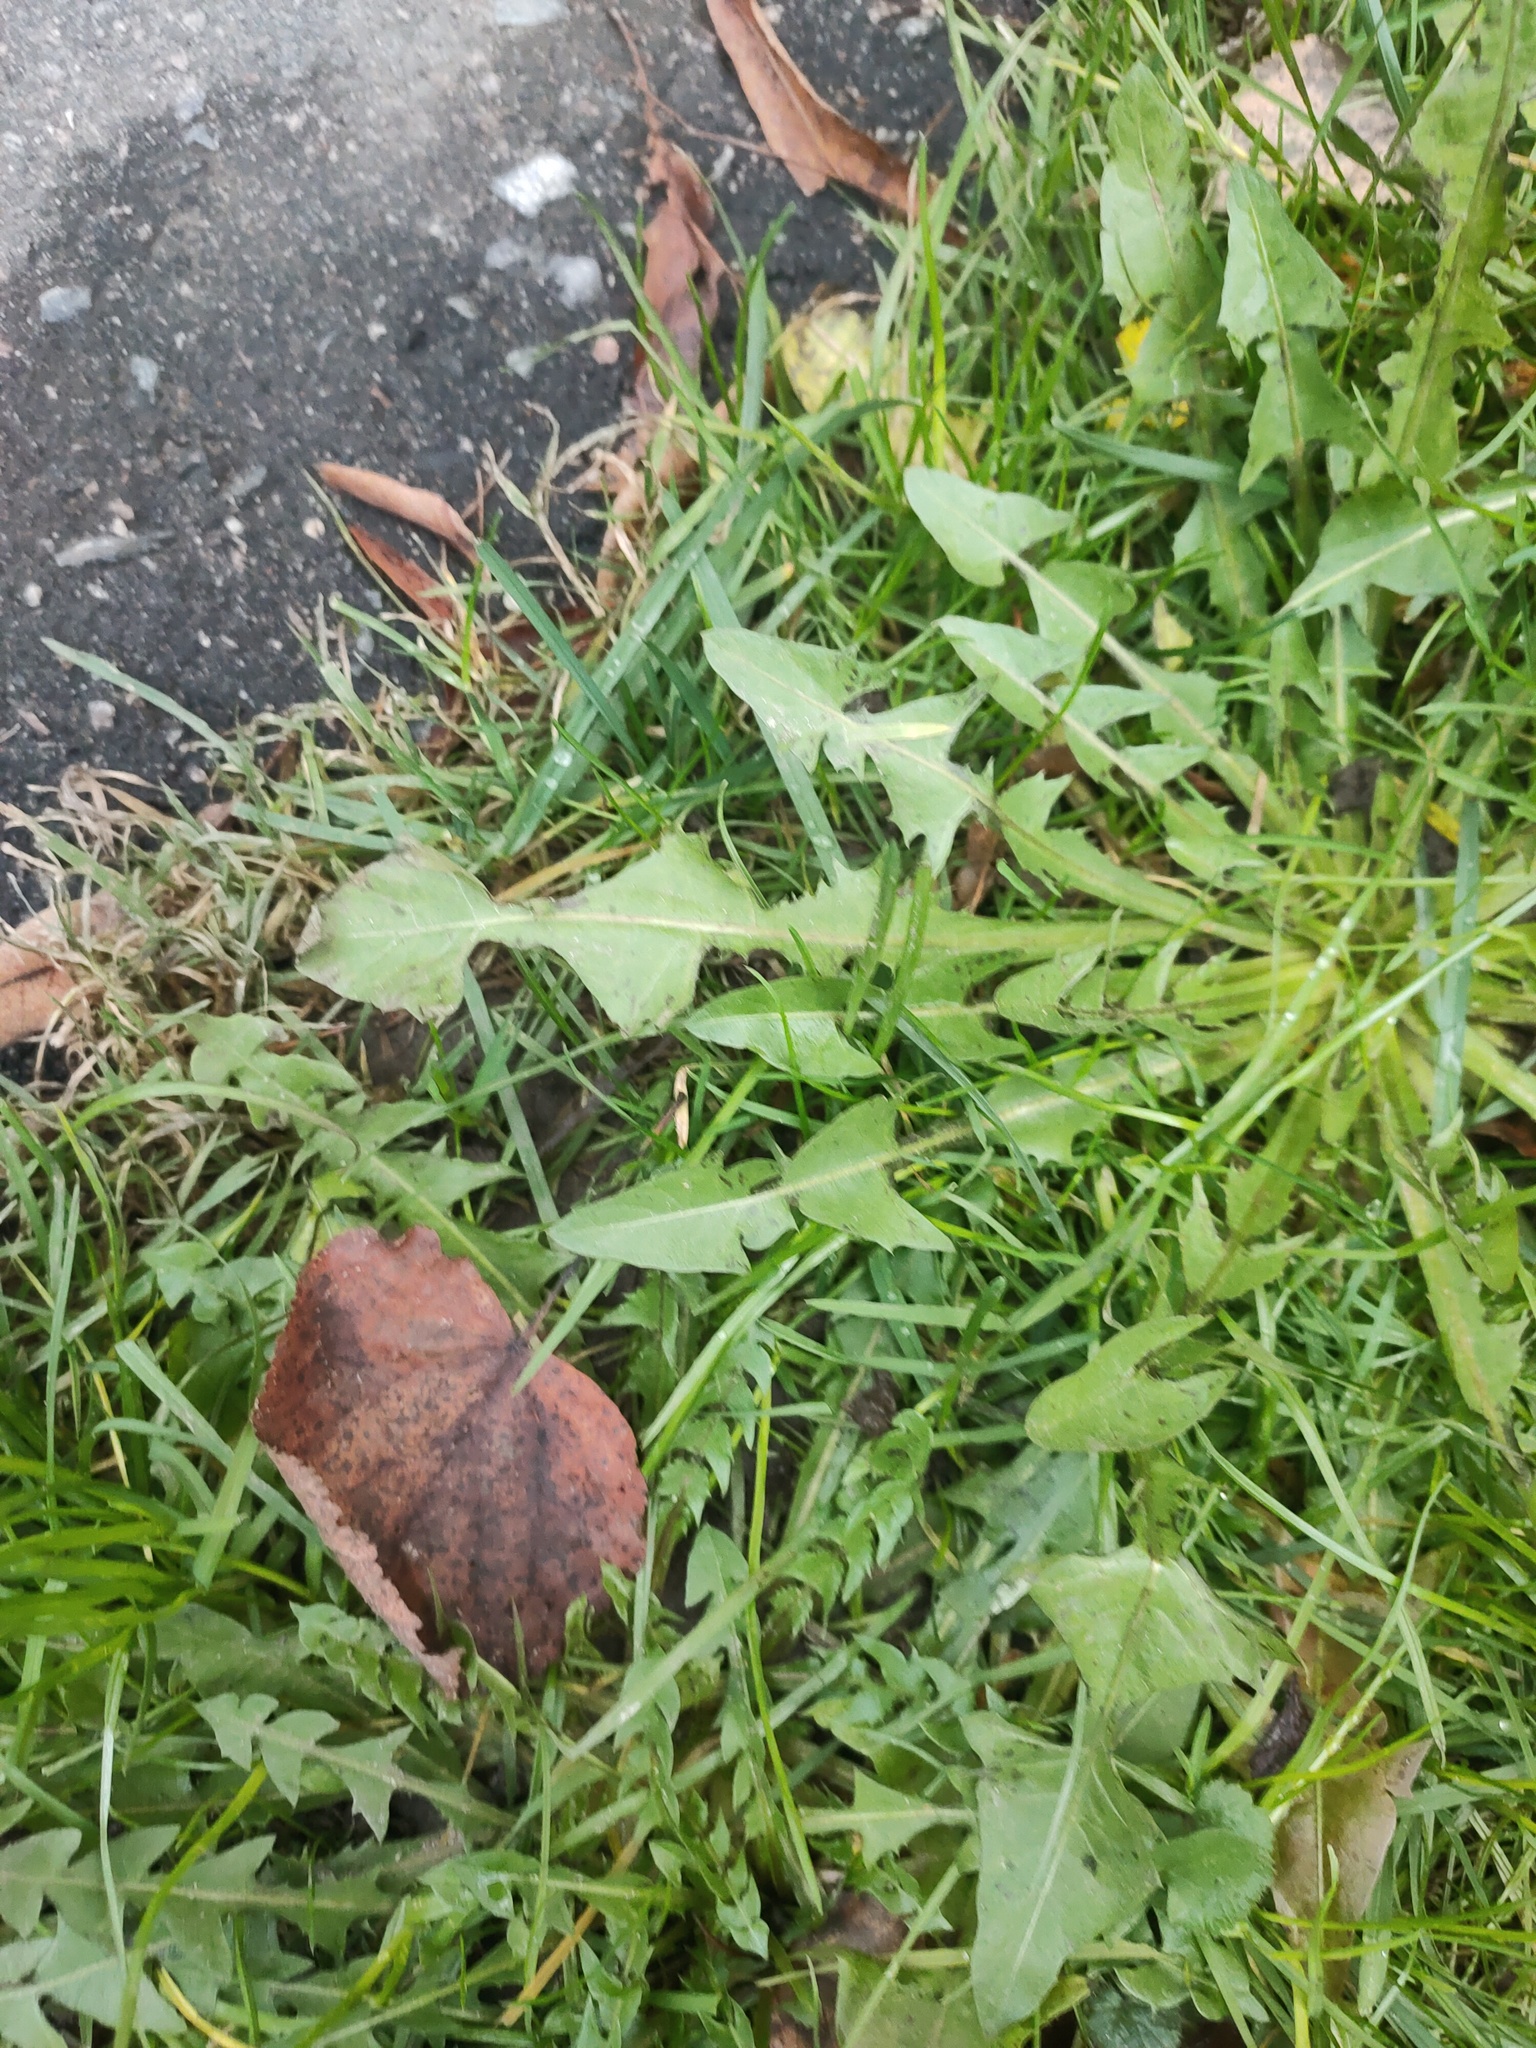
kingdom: Plantae
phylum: Tracheophyta
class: Magnoliopsida
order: Asterales
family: Asteraceae
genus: Taraxacum
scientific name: Taraxacum officinale
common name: Common dandelion
